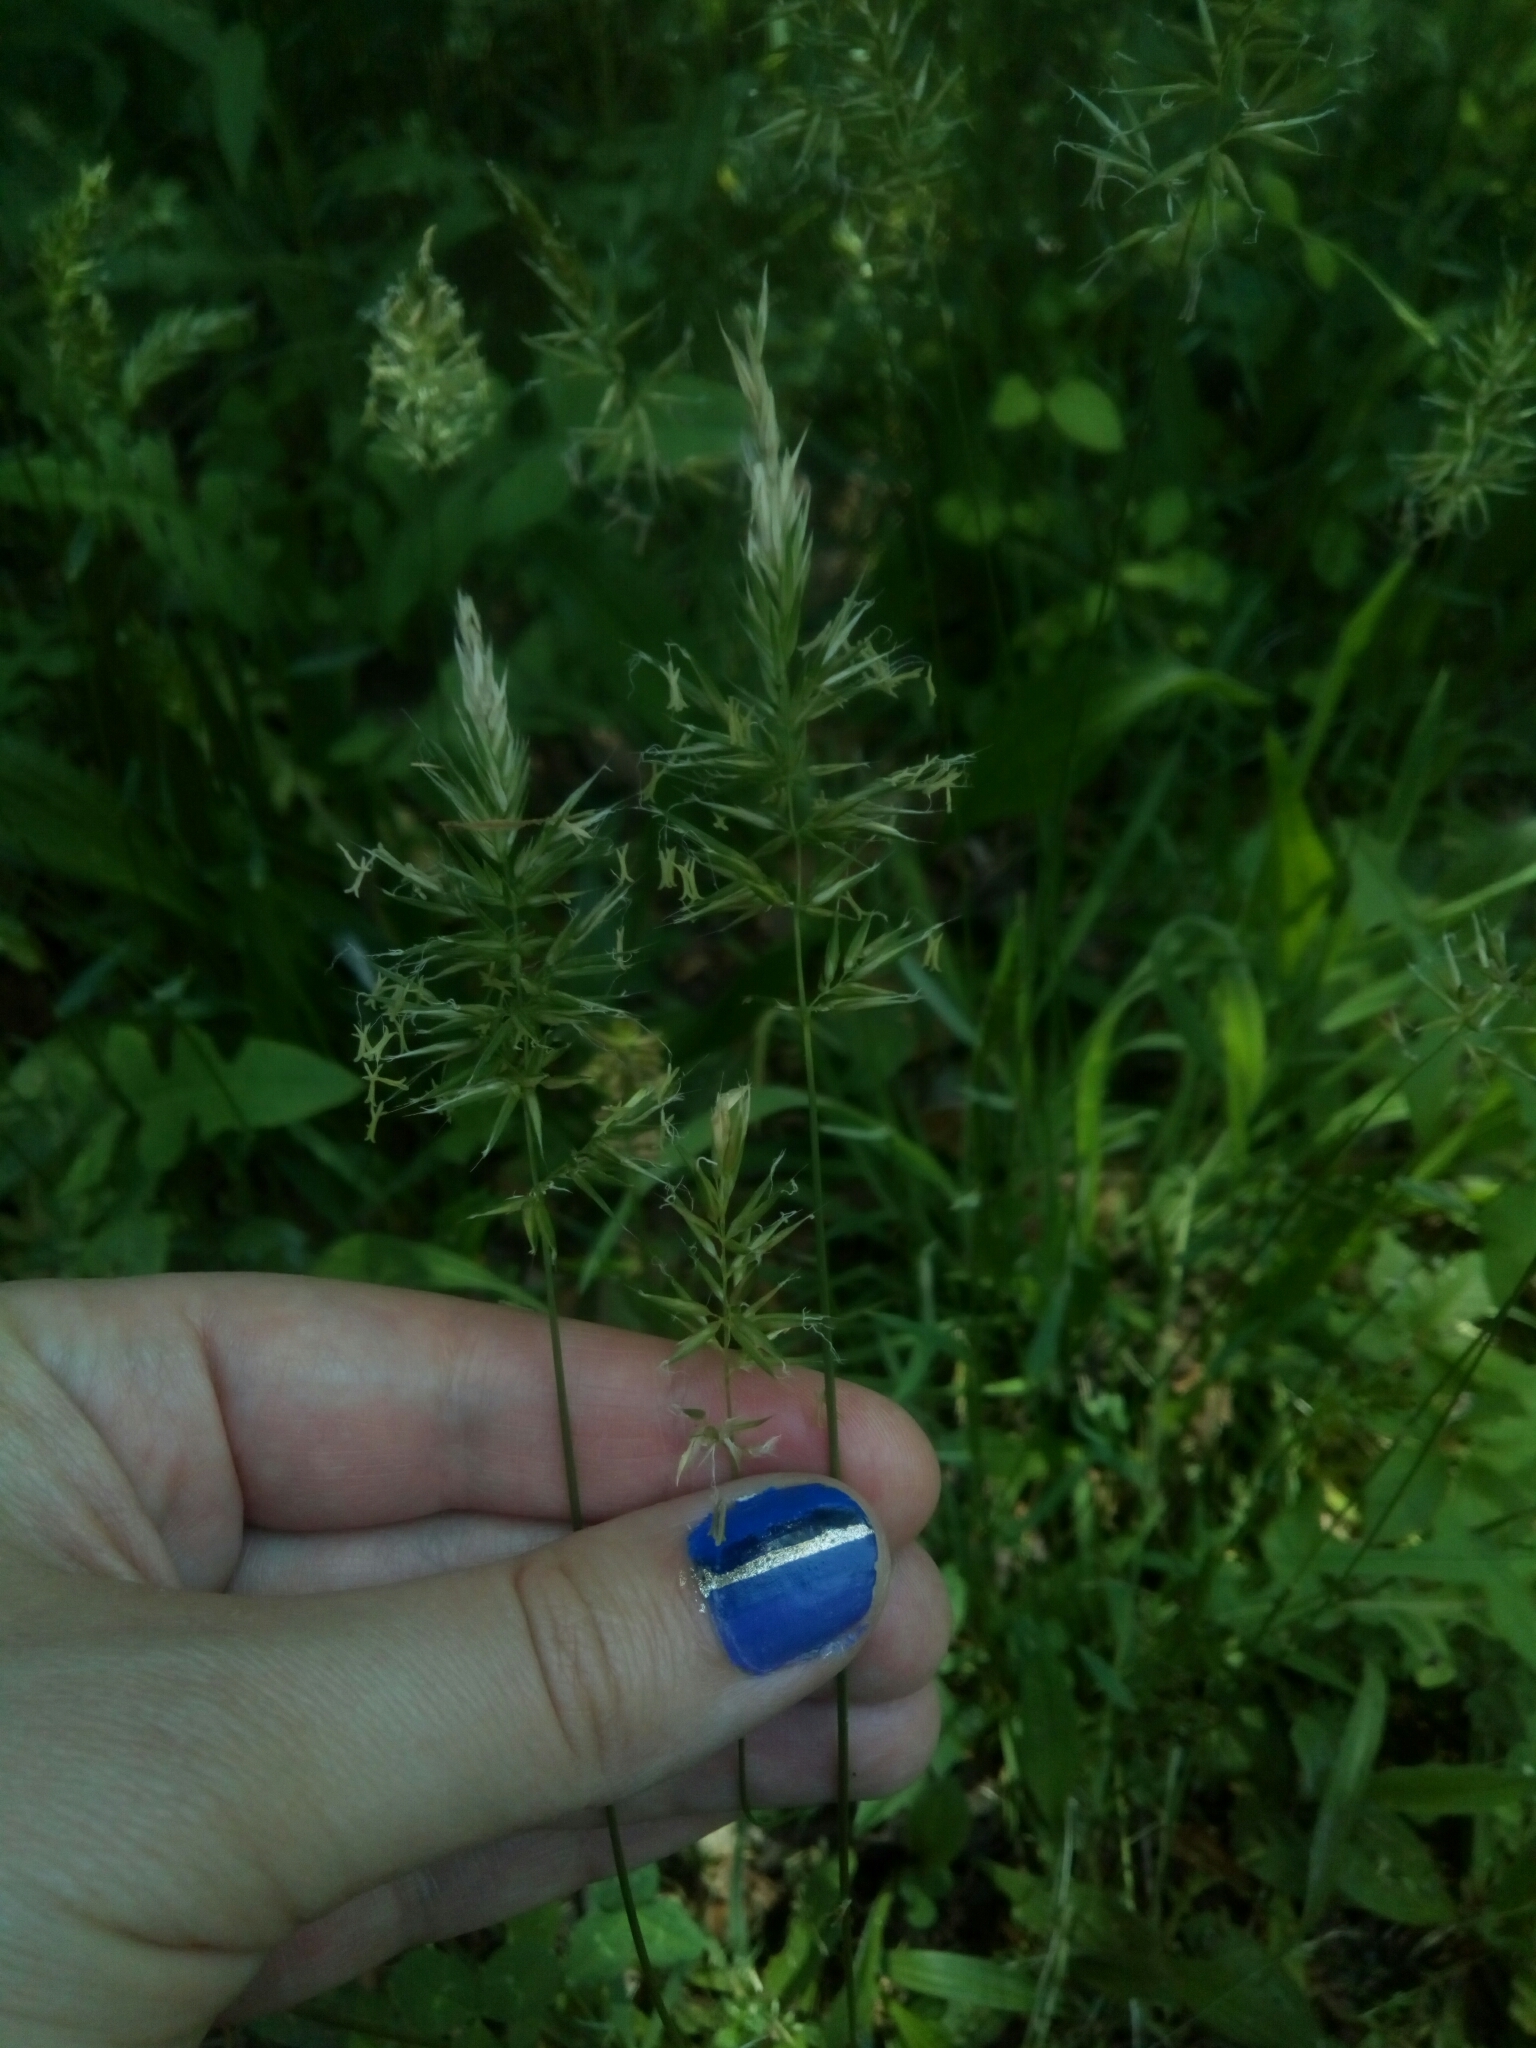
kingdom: Plantae
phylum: Tracheophyta
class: Liliopsida
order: Poales
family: Poaceae
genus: Anthoxanthum
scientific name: Anthoxanthum odoratum
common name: Sweet vernalgrass
